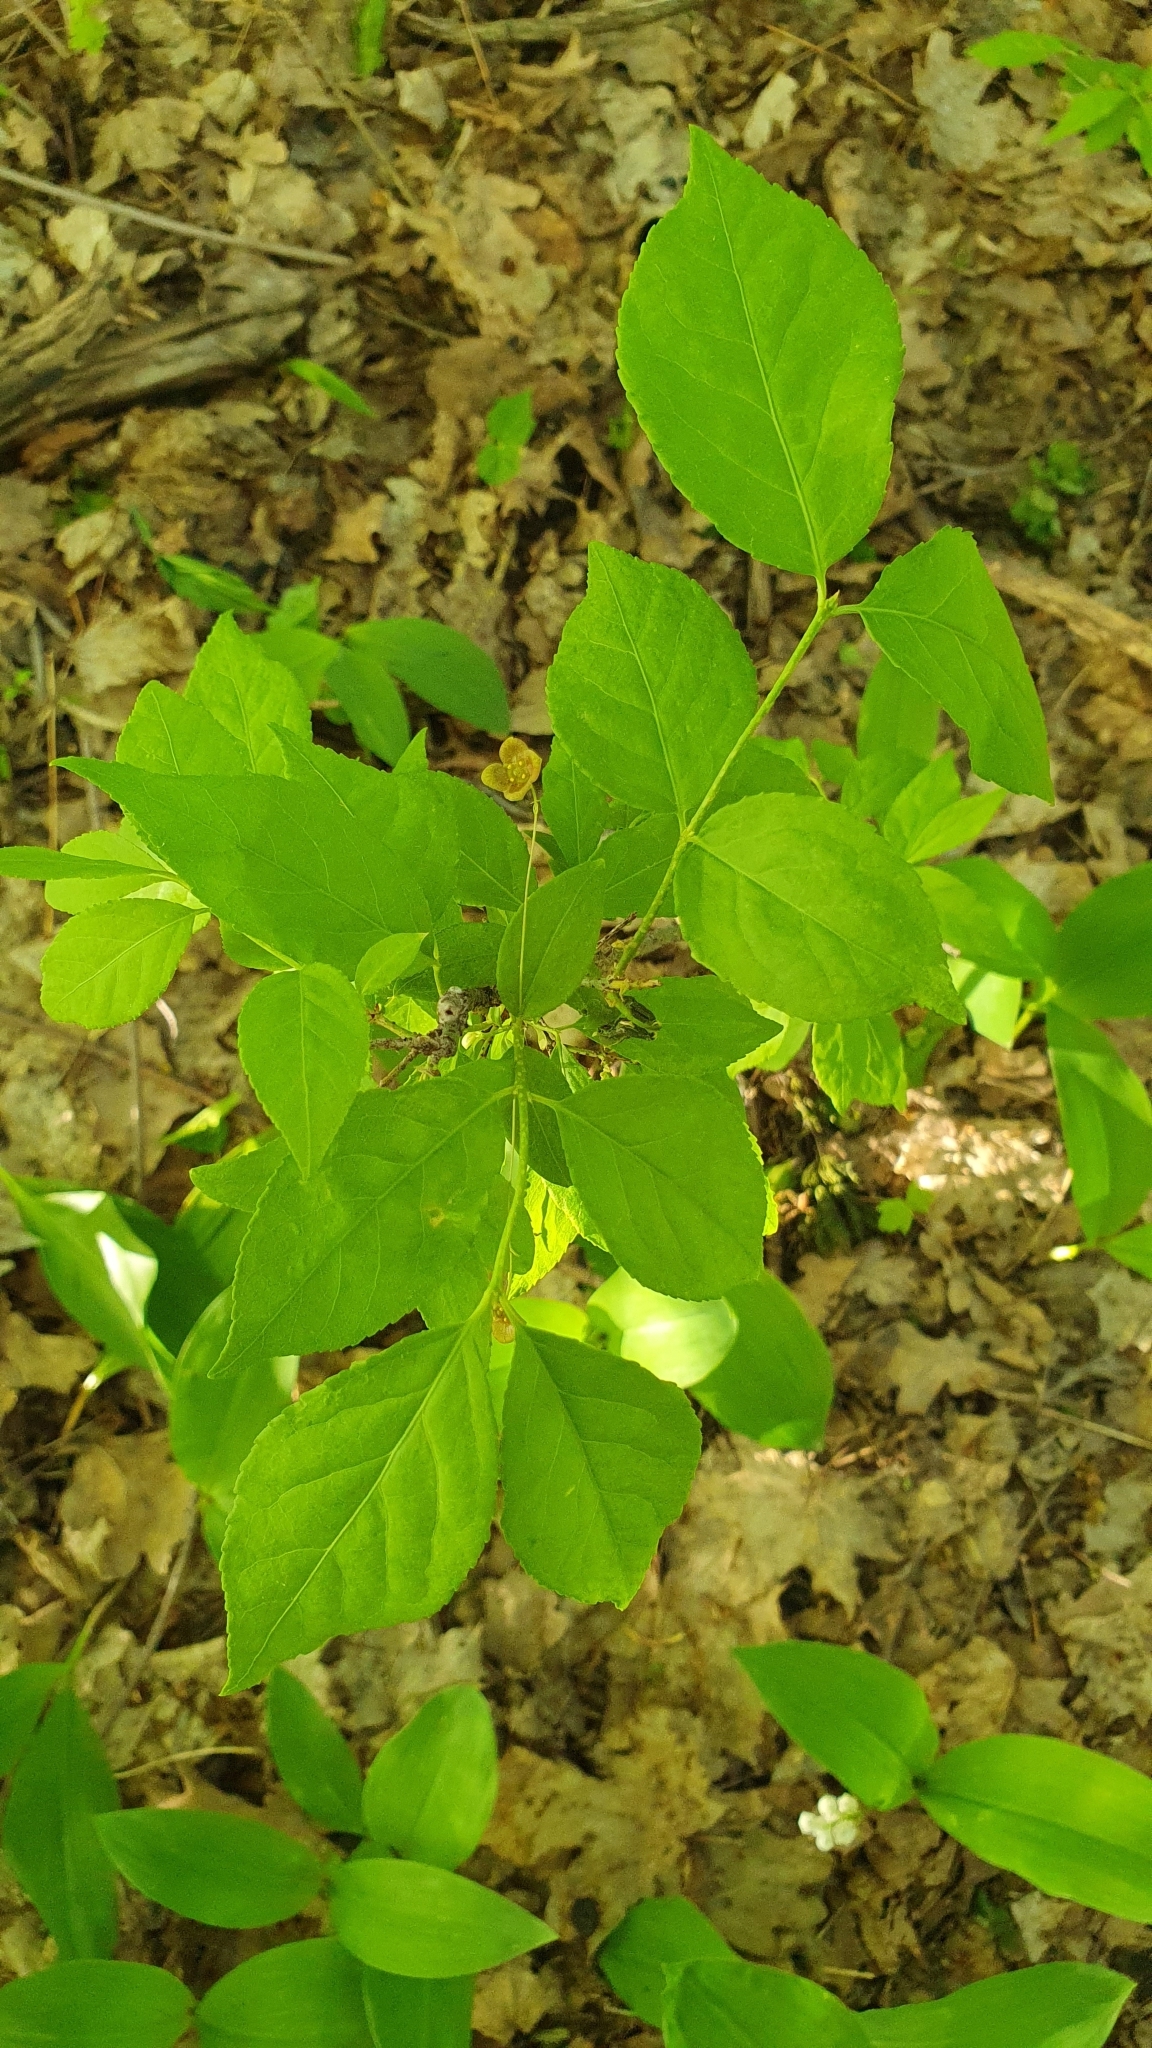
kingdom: Plantae
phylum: Tracheophyta
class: Magnoliopsida
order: Celastrales
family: Celastraceae
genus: Euonymus
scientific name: Euonymus verrucosus
